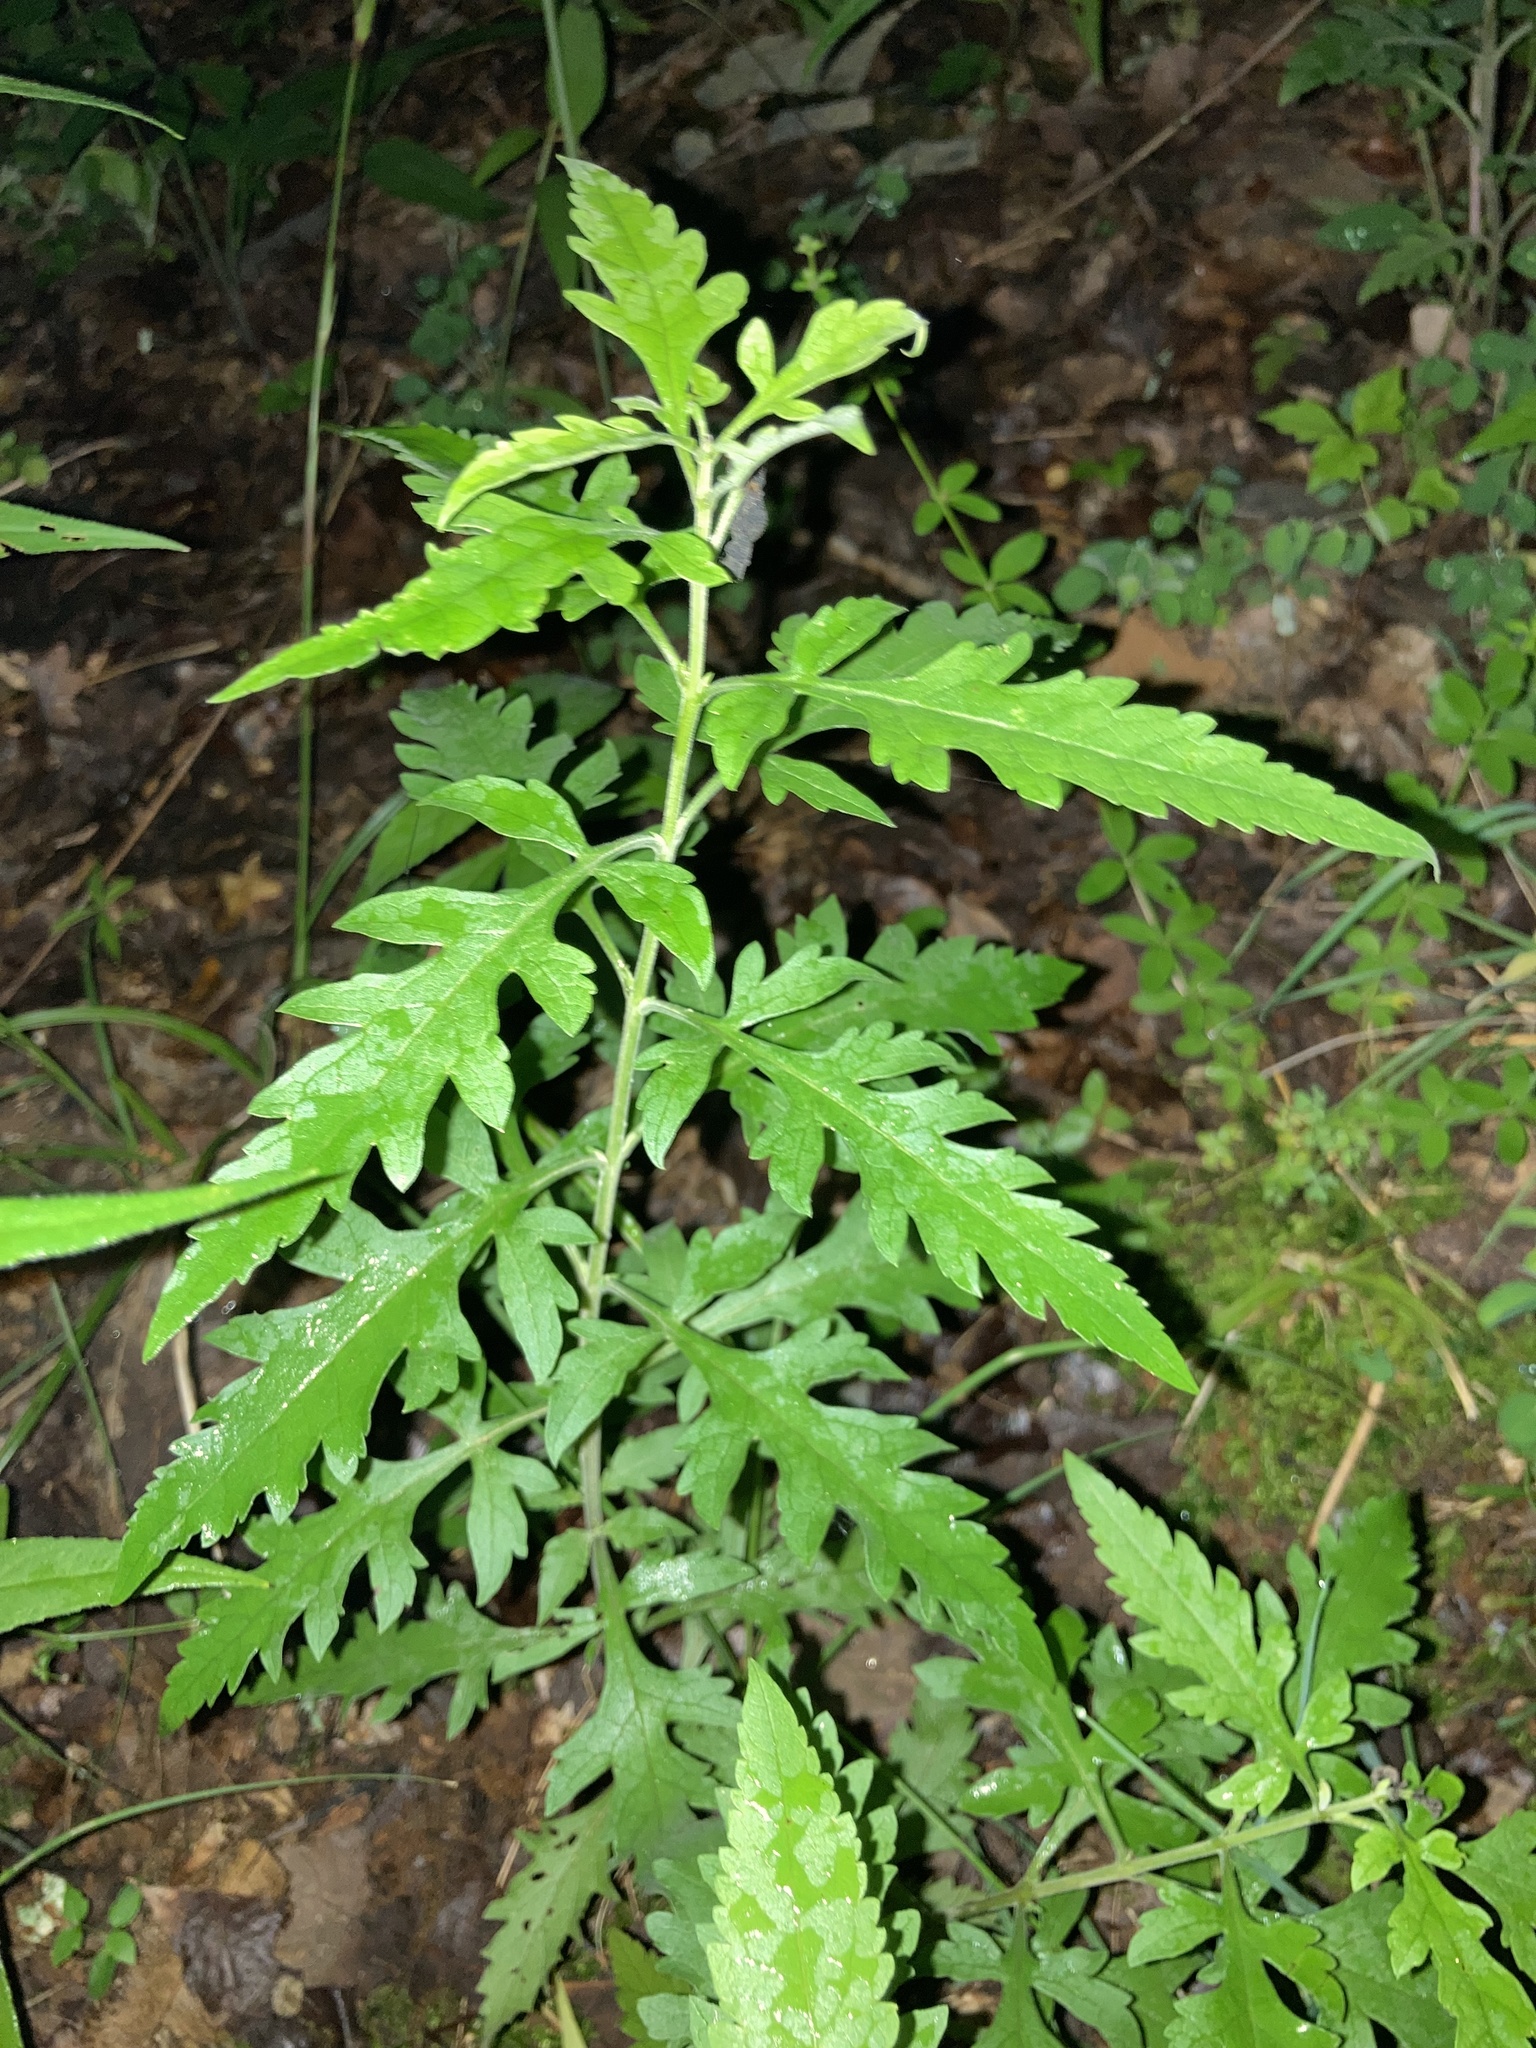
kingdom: Plantae
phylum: Tracheophyta
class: Magnoliopsida
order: Lamiales
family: Orobanchaceae
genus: Aureolaria
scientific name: Aureolaria grandiflora
